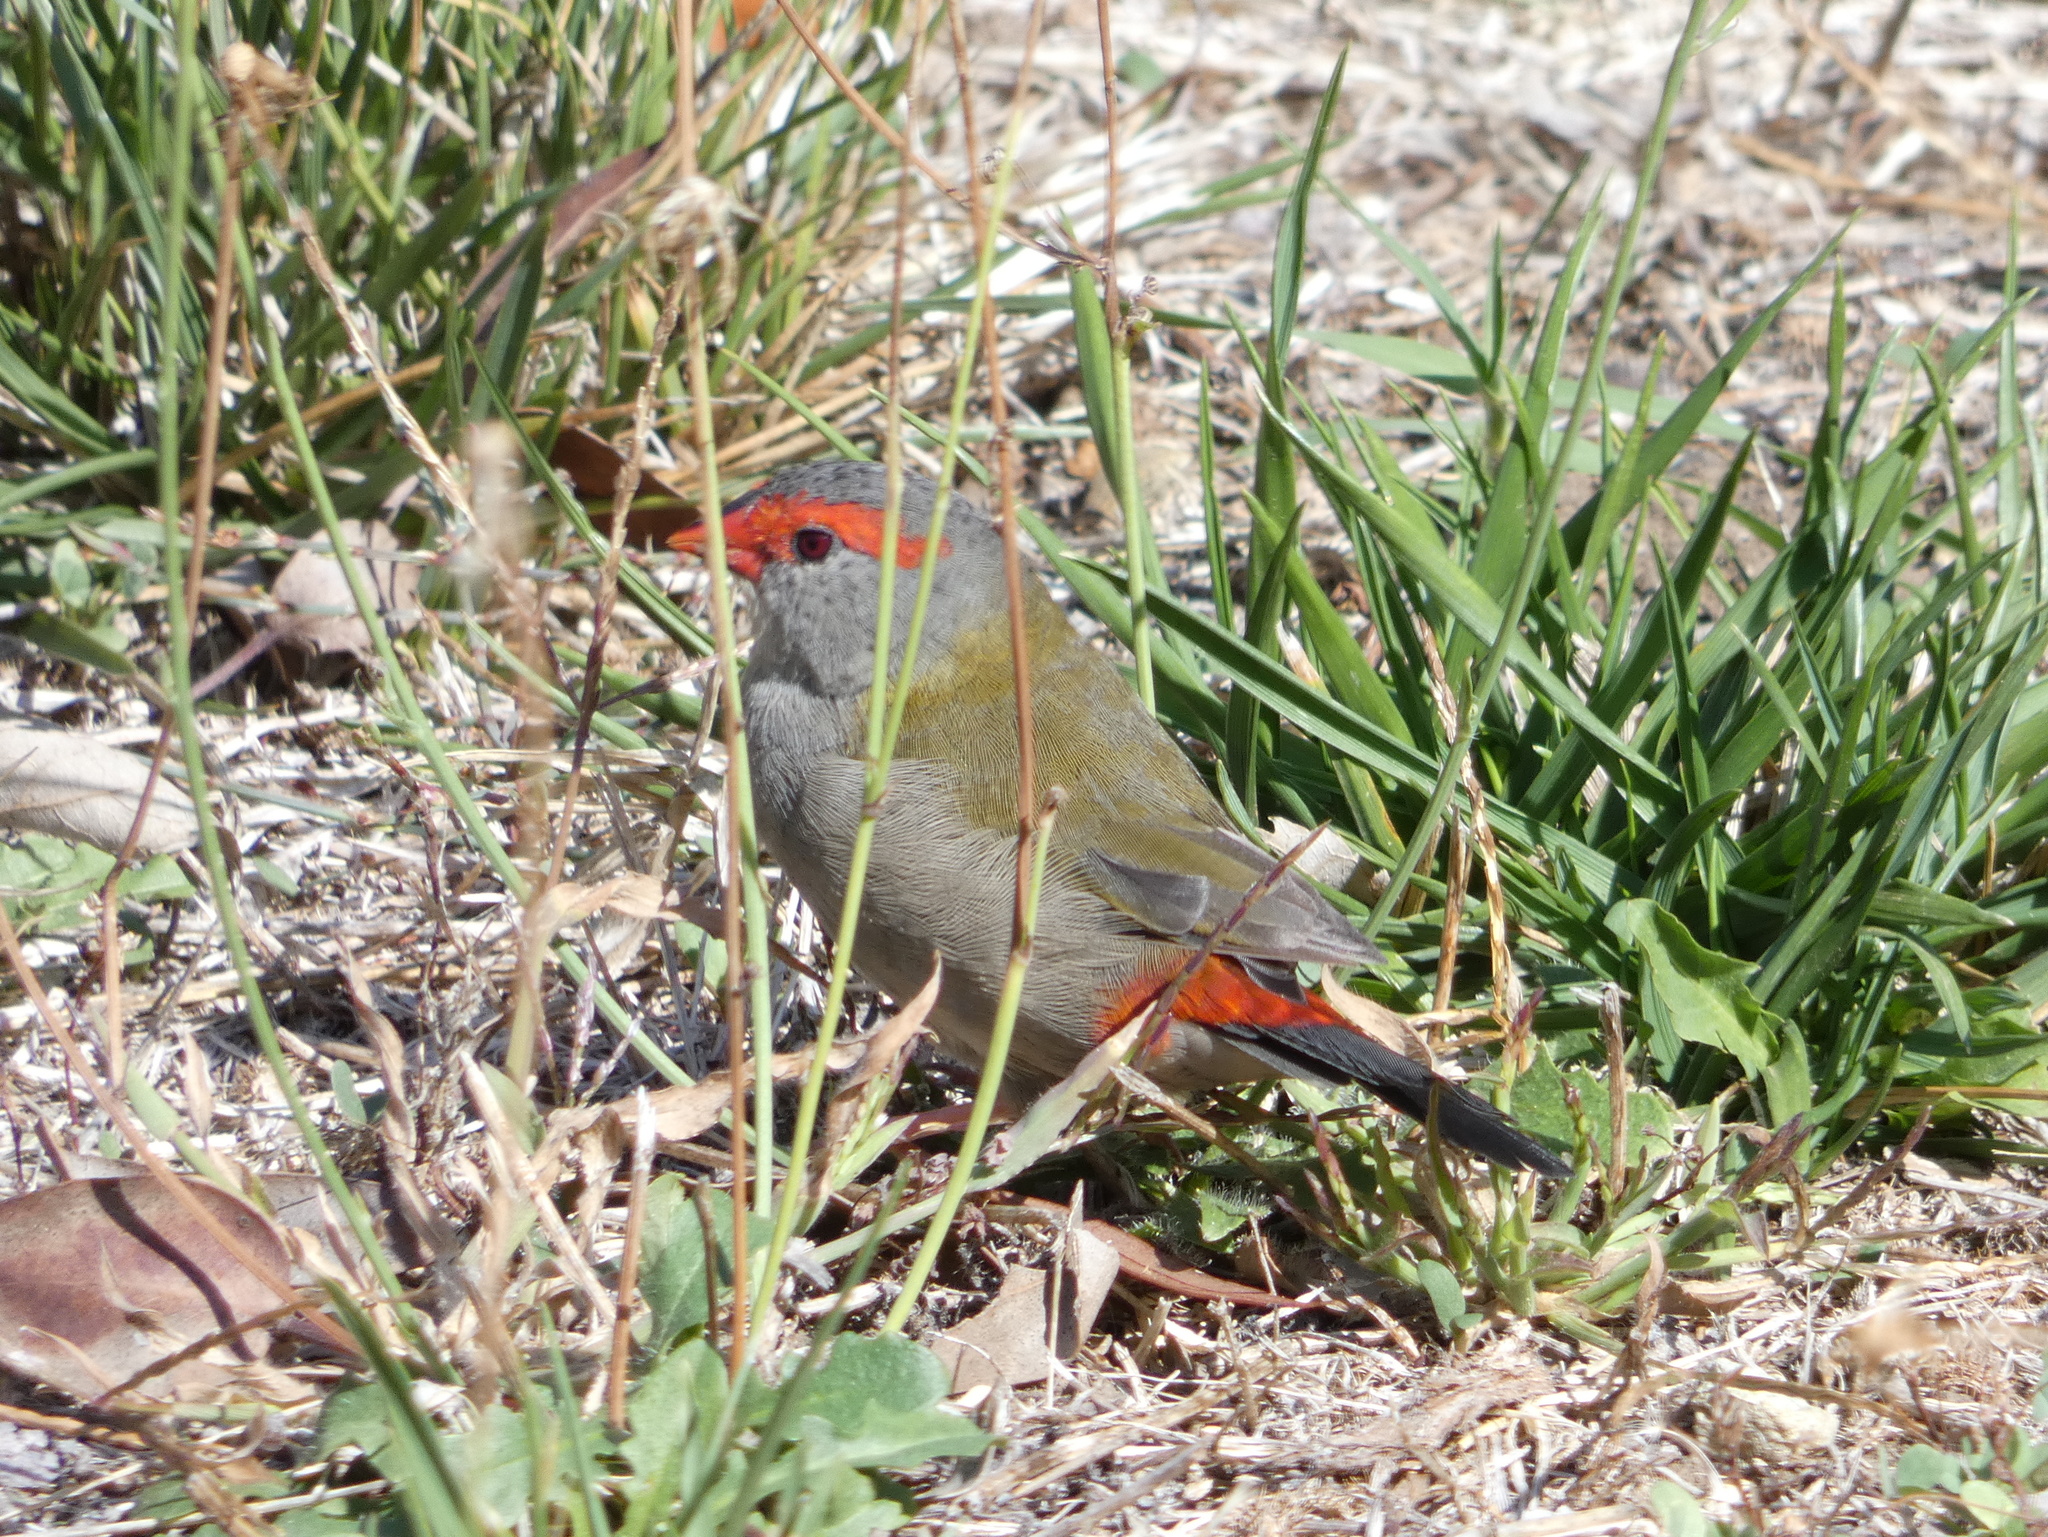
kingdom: Animalia
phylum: Chordata
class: Aves
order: Passeriformes
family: Estrildidae
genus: Neochmia
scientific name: Neochmia temporalis
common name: Red-browed finch
